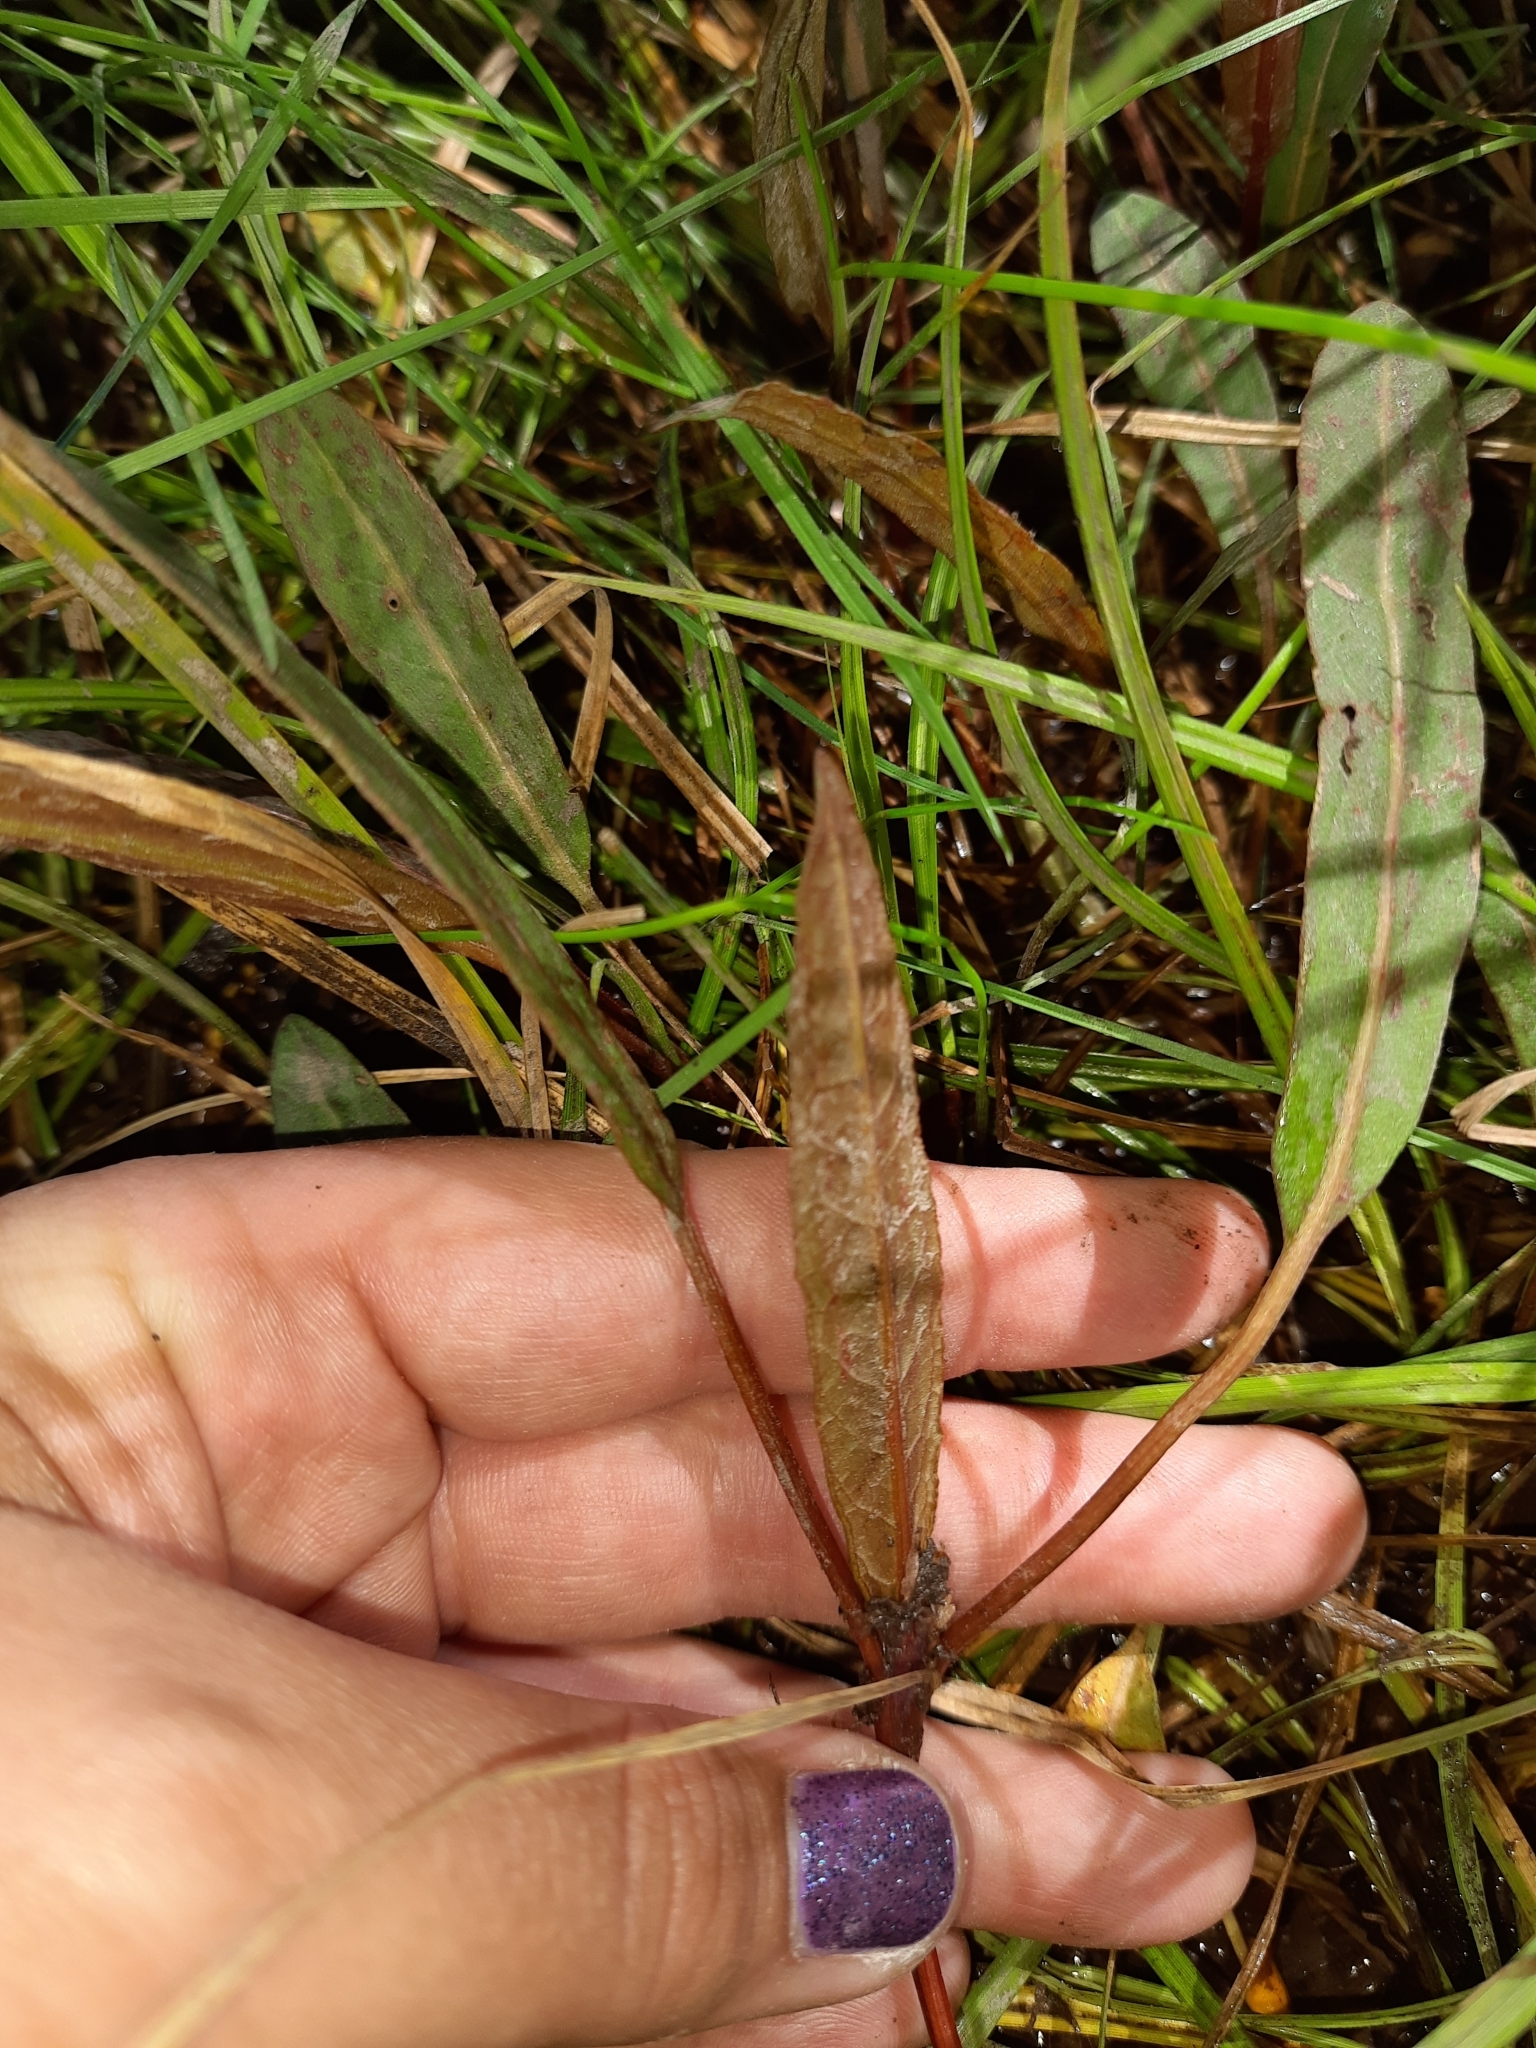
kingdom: Plantae
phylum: Tracheophyta
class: Magnoliopsida
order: Caryophyllales
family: Polygonaceae
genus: Rumex
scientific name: Rumex flexuosus
